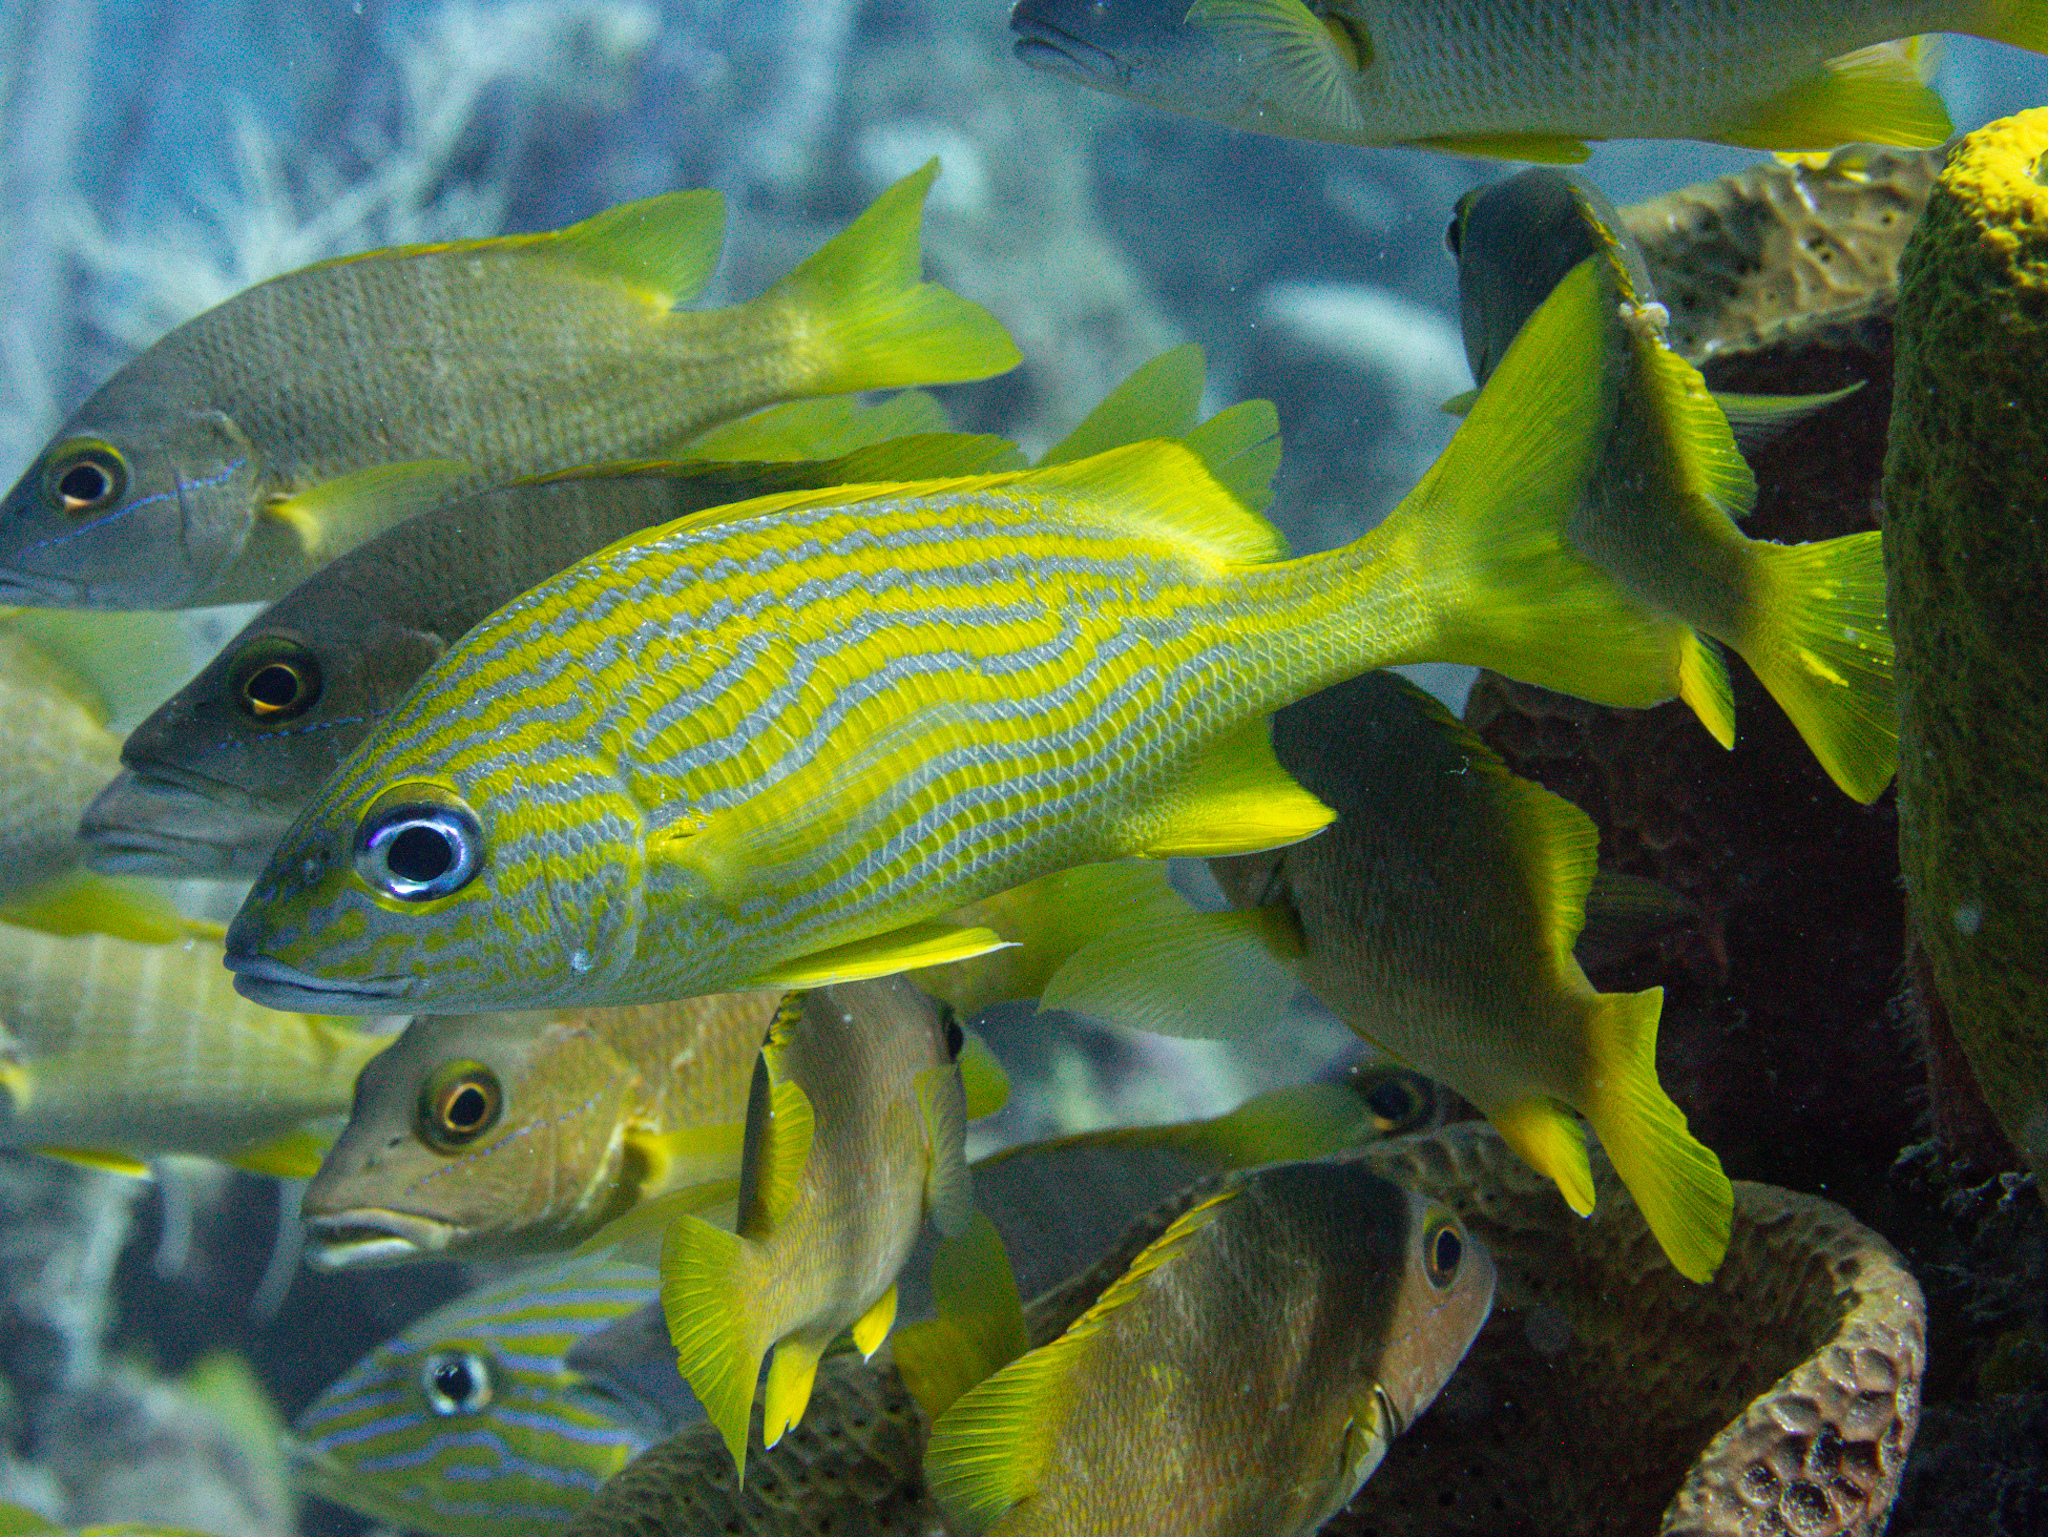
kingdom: Animalia
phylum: Chordata
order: Perciformes
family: Haemulidae
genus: Haemulon
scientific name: Haemulon flavolineatum
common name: French grunt
